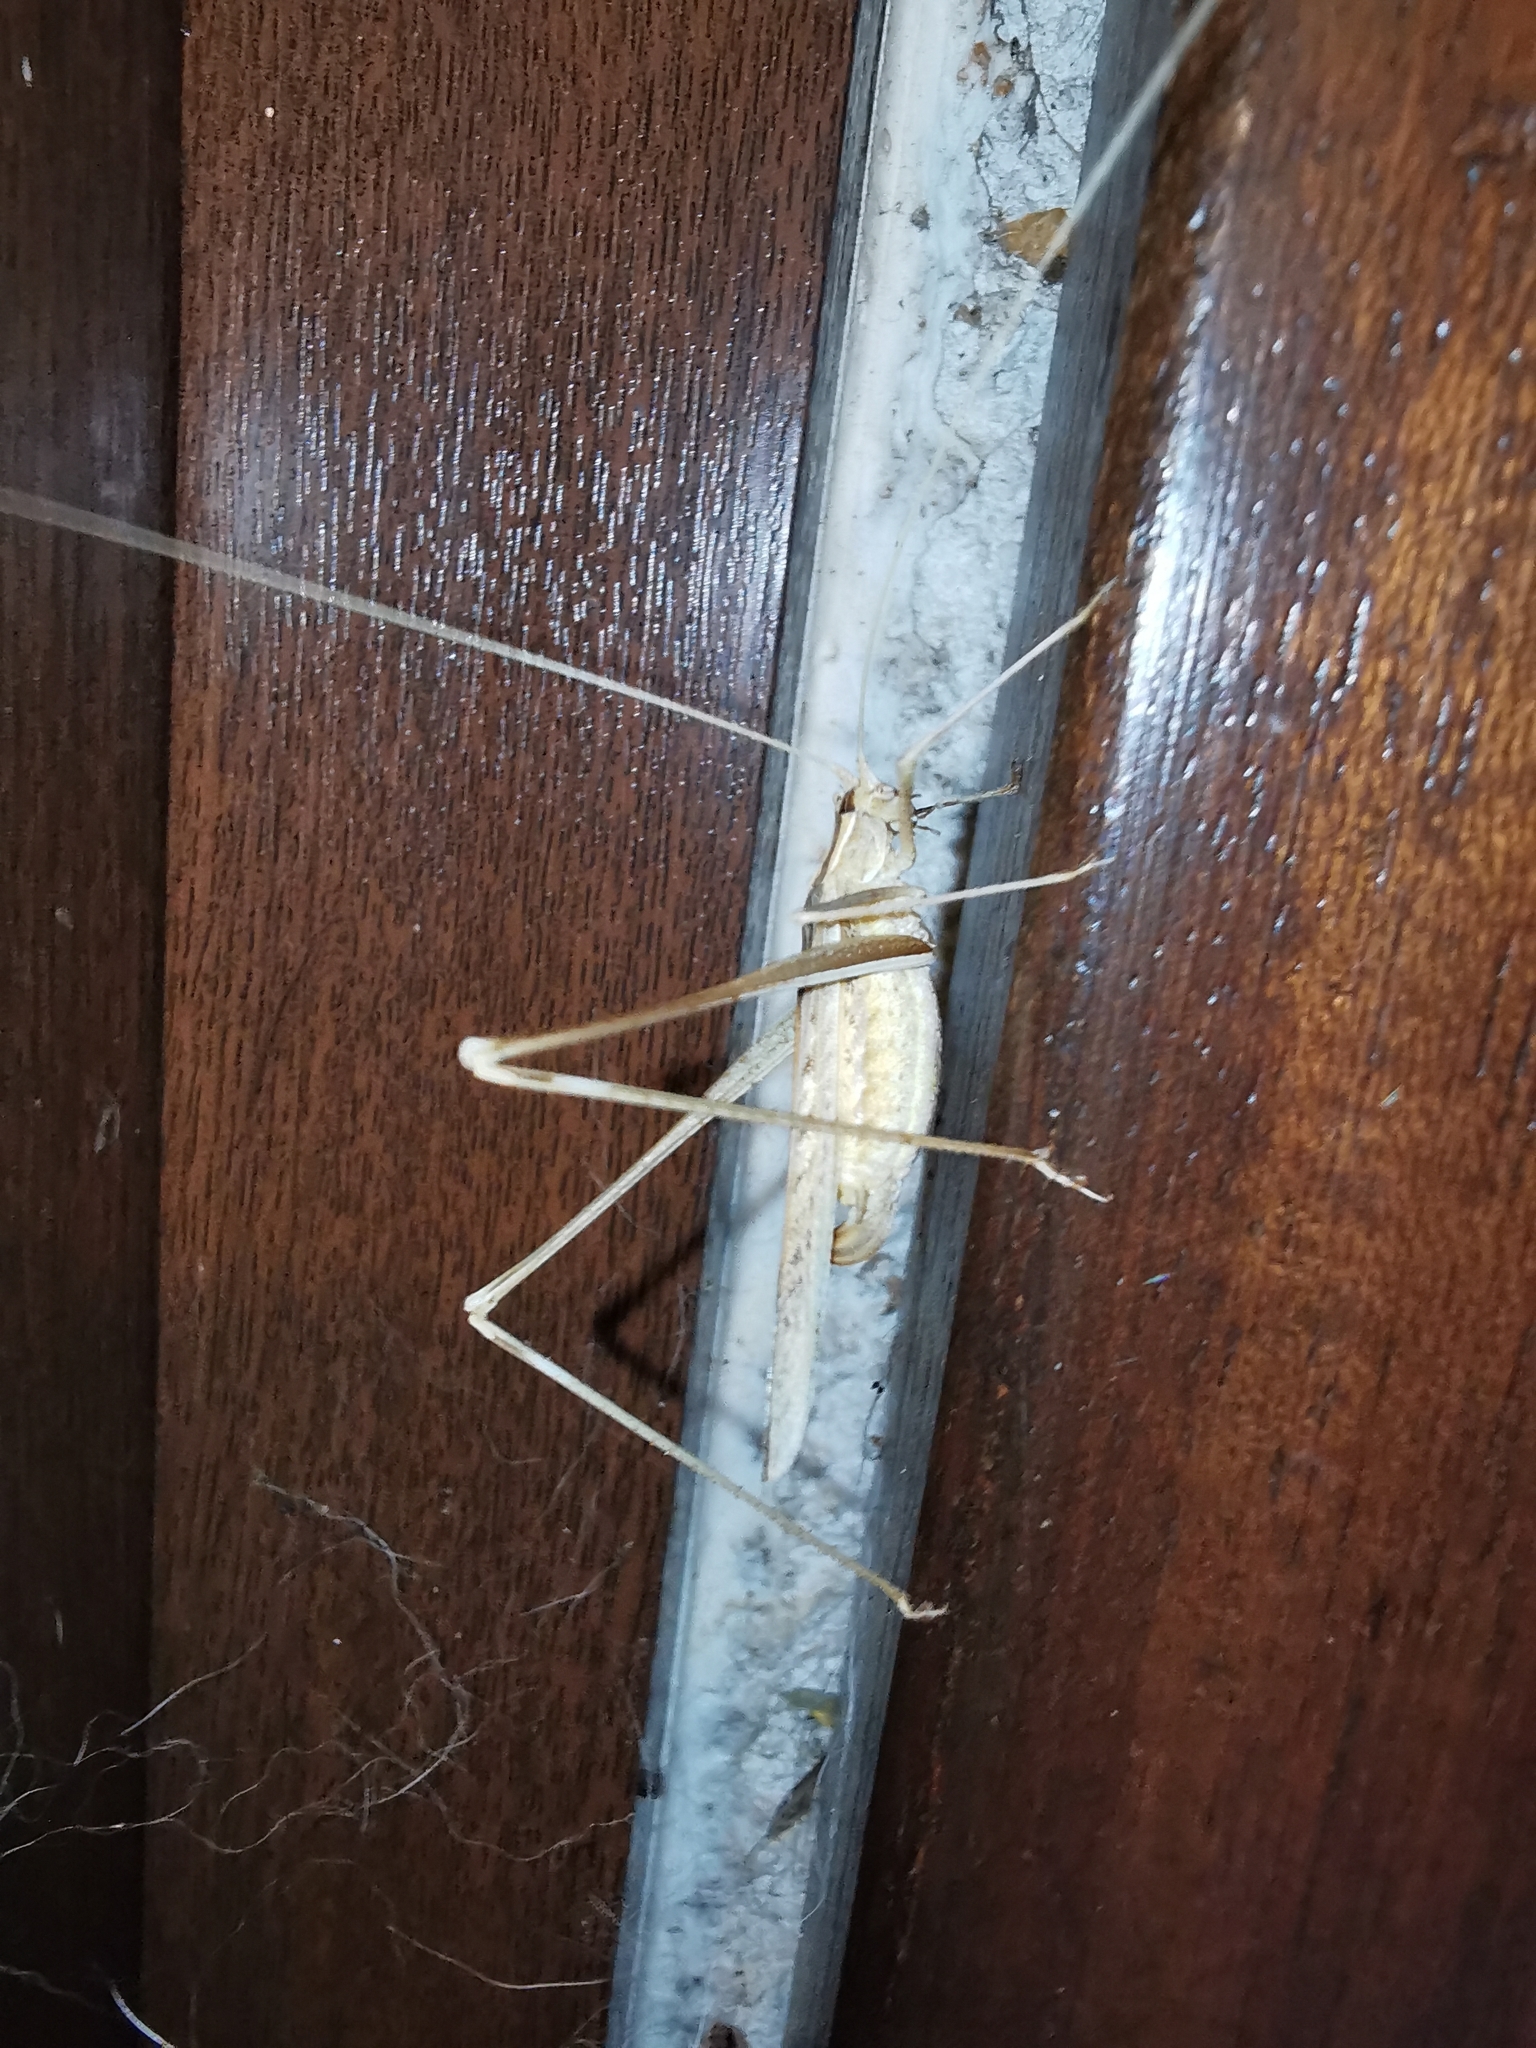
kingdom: Animalia
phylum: Arthropoda
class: Insecta
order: Orthoptera
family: Tettigoniidae
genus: Tylopsis
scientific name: Tylopsis lilifolia
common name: Lily bush-cricket
